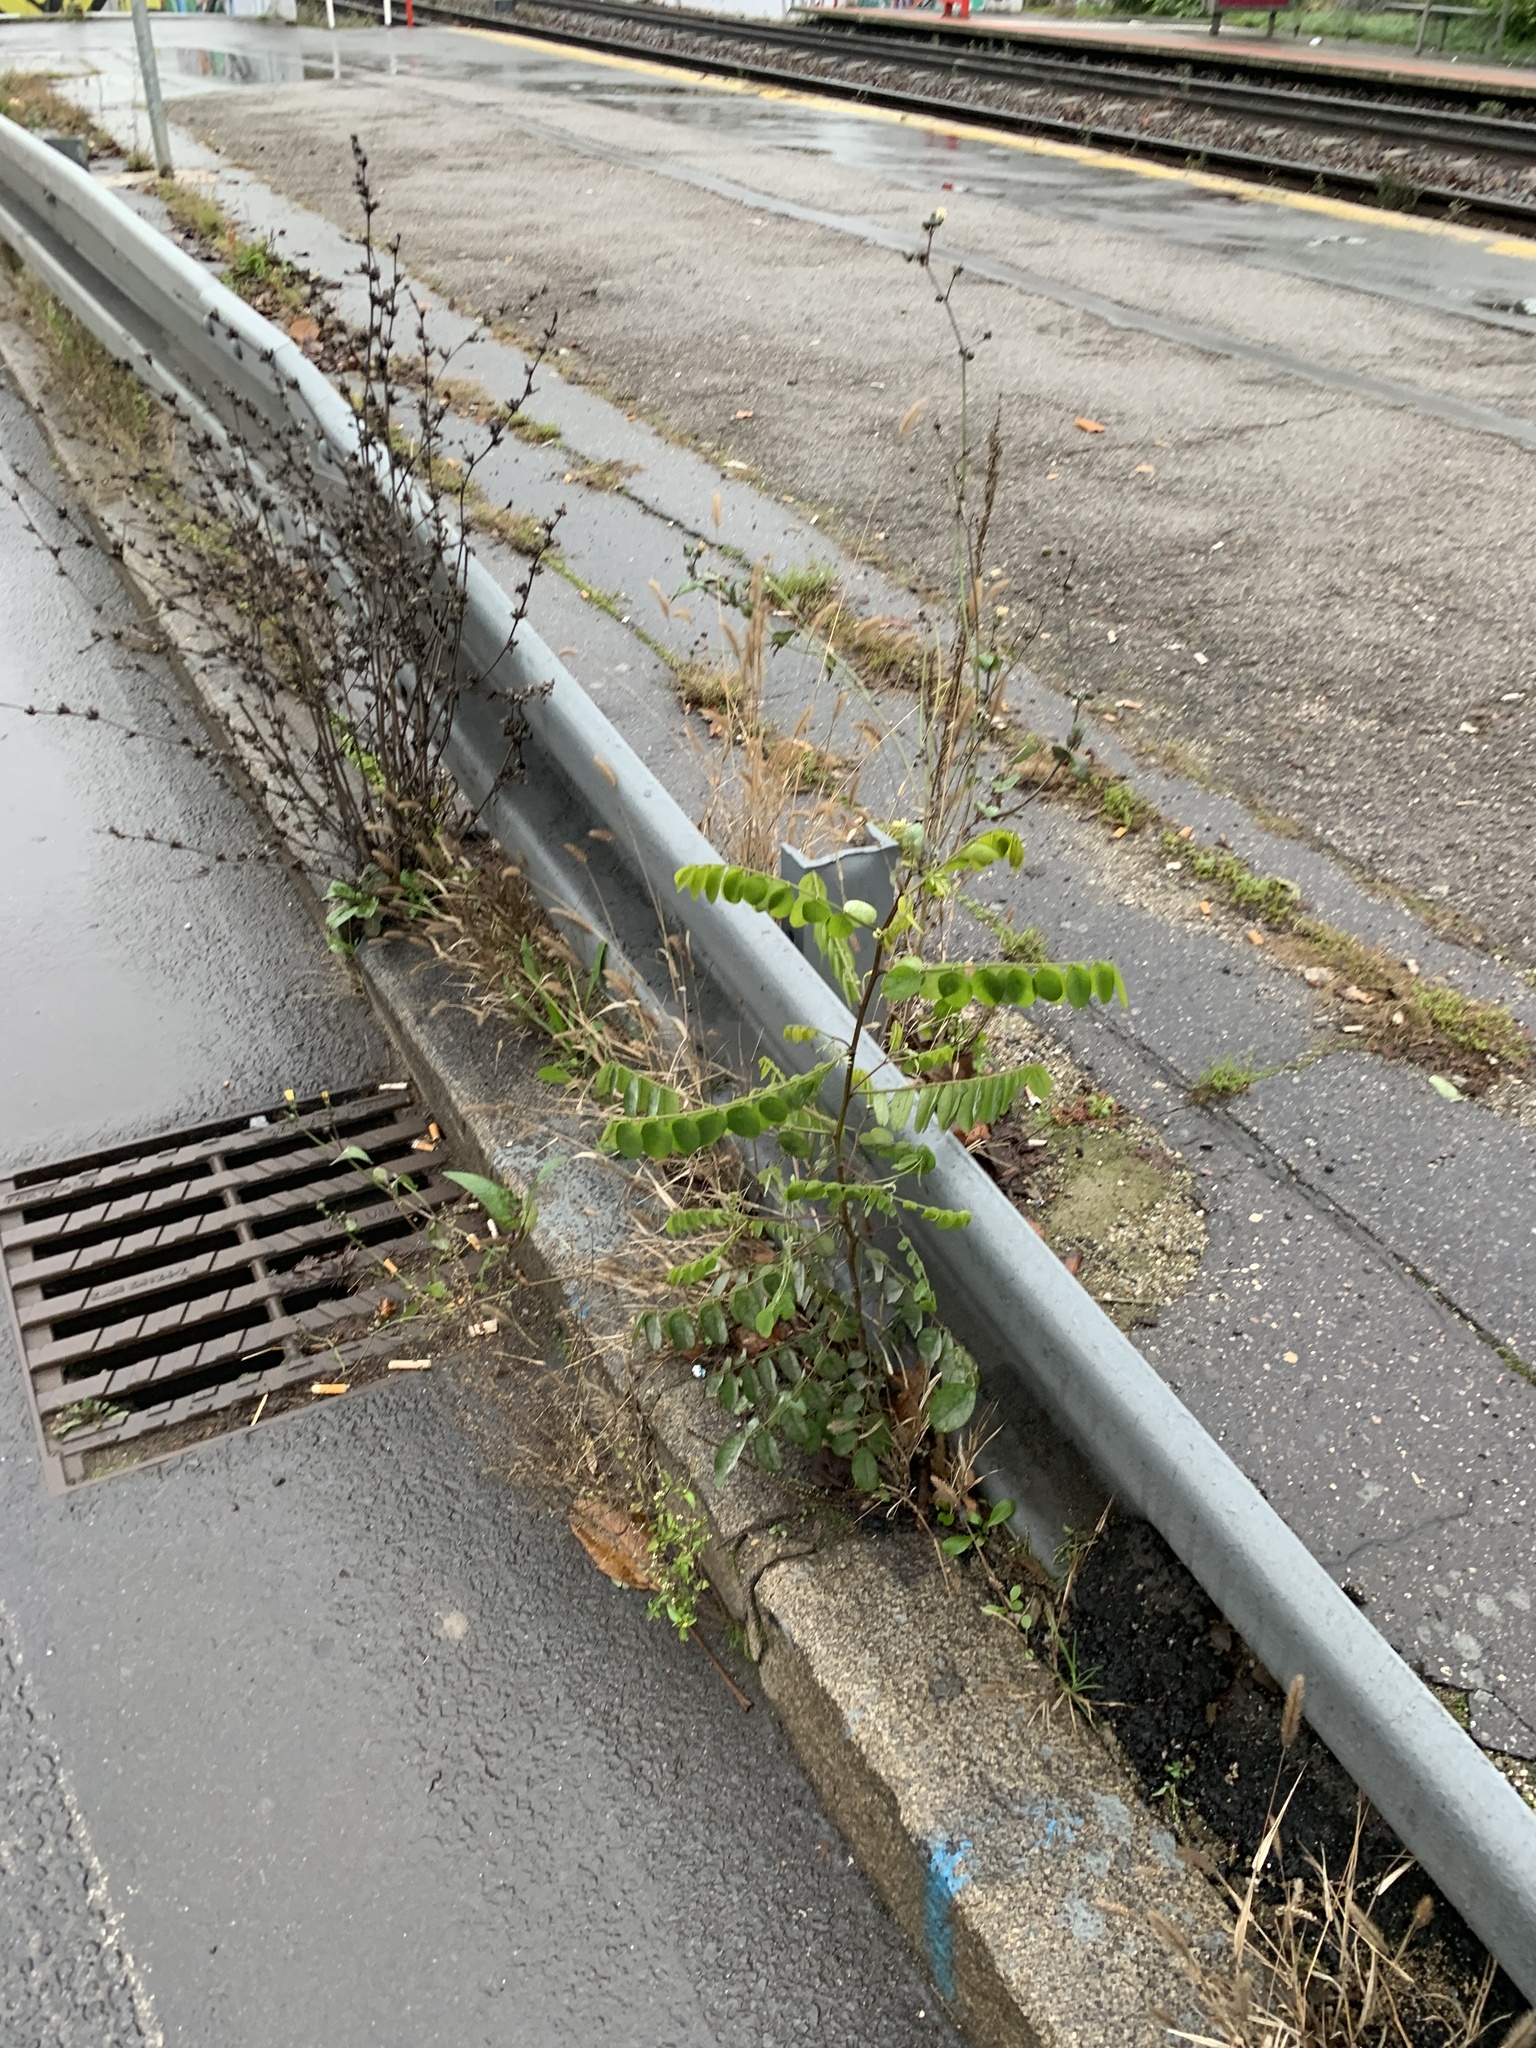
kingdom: Plantae
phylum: Tracheophyta
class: Magnoliopsida
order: Fabales
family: Fabaceae
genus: Robinia
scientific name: Robinia pseudoacacia
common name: Black locust
